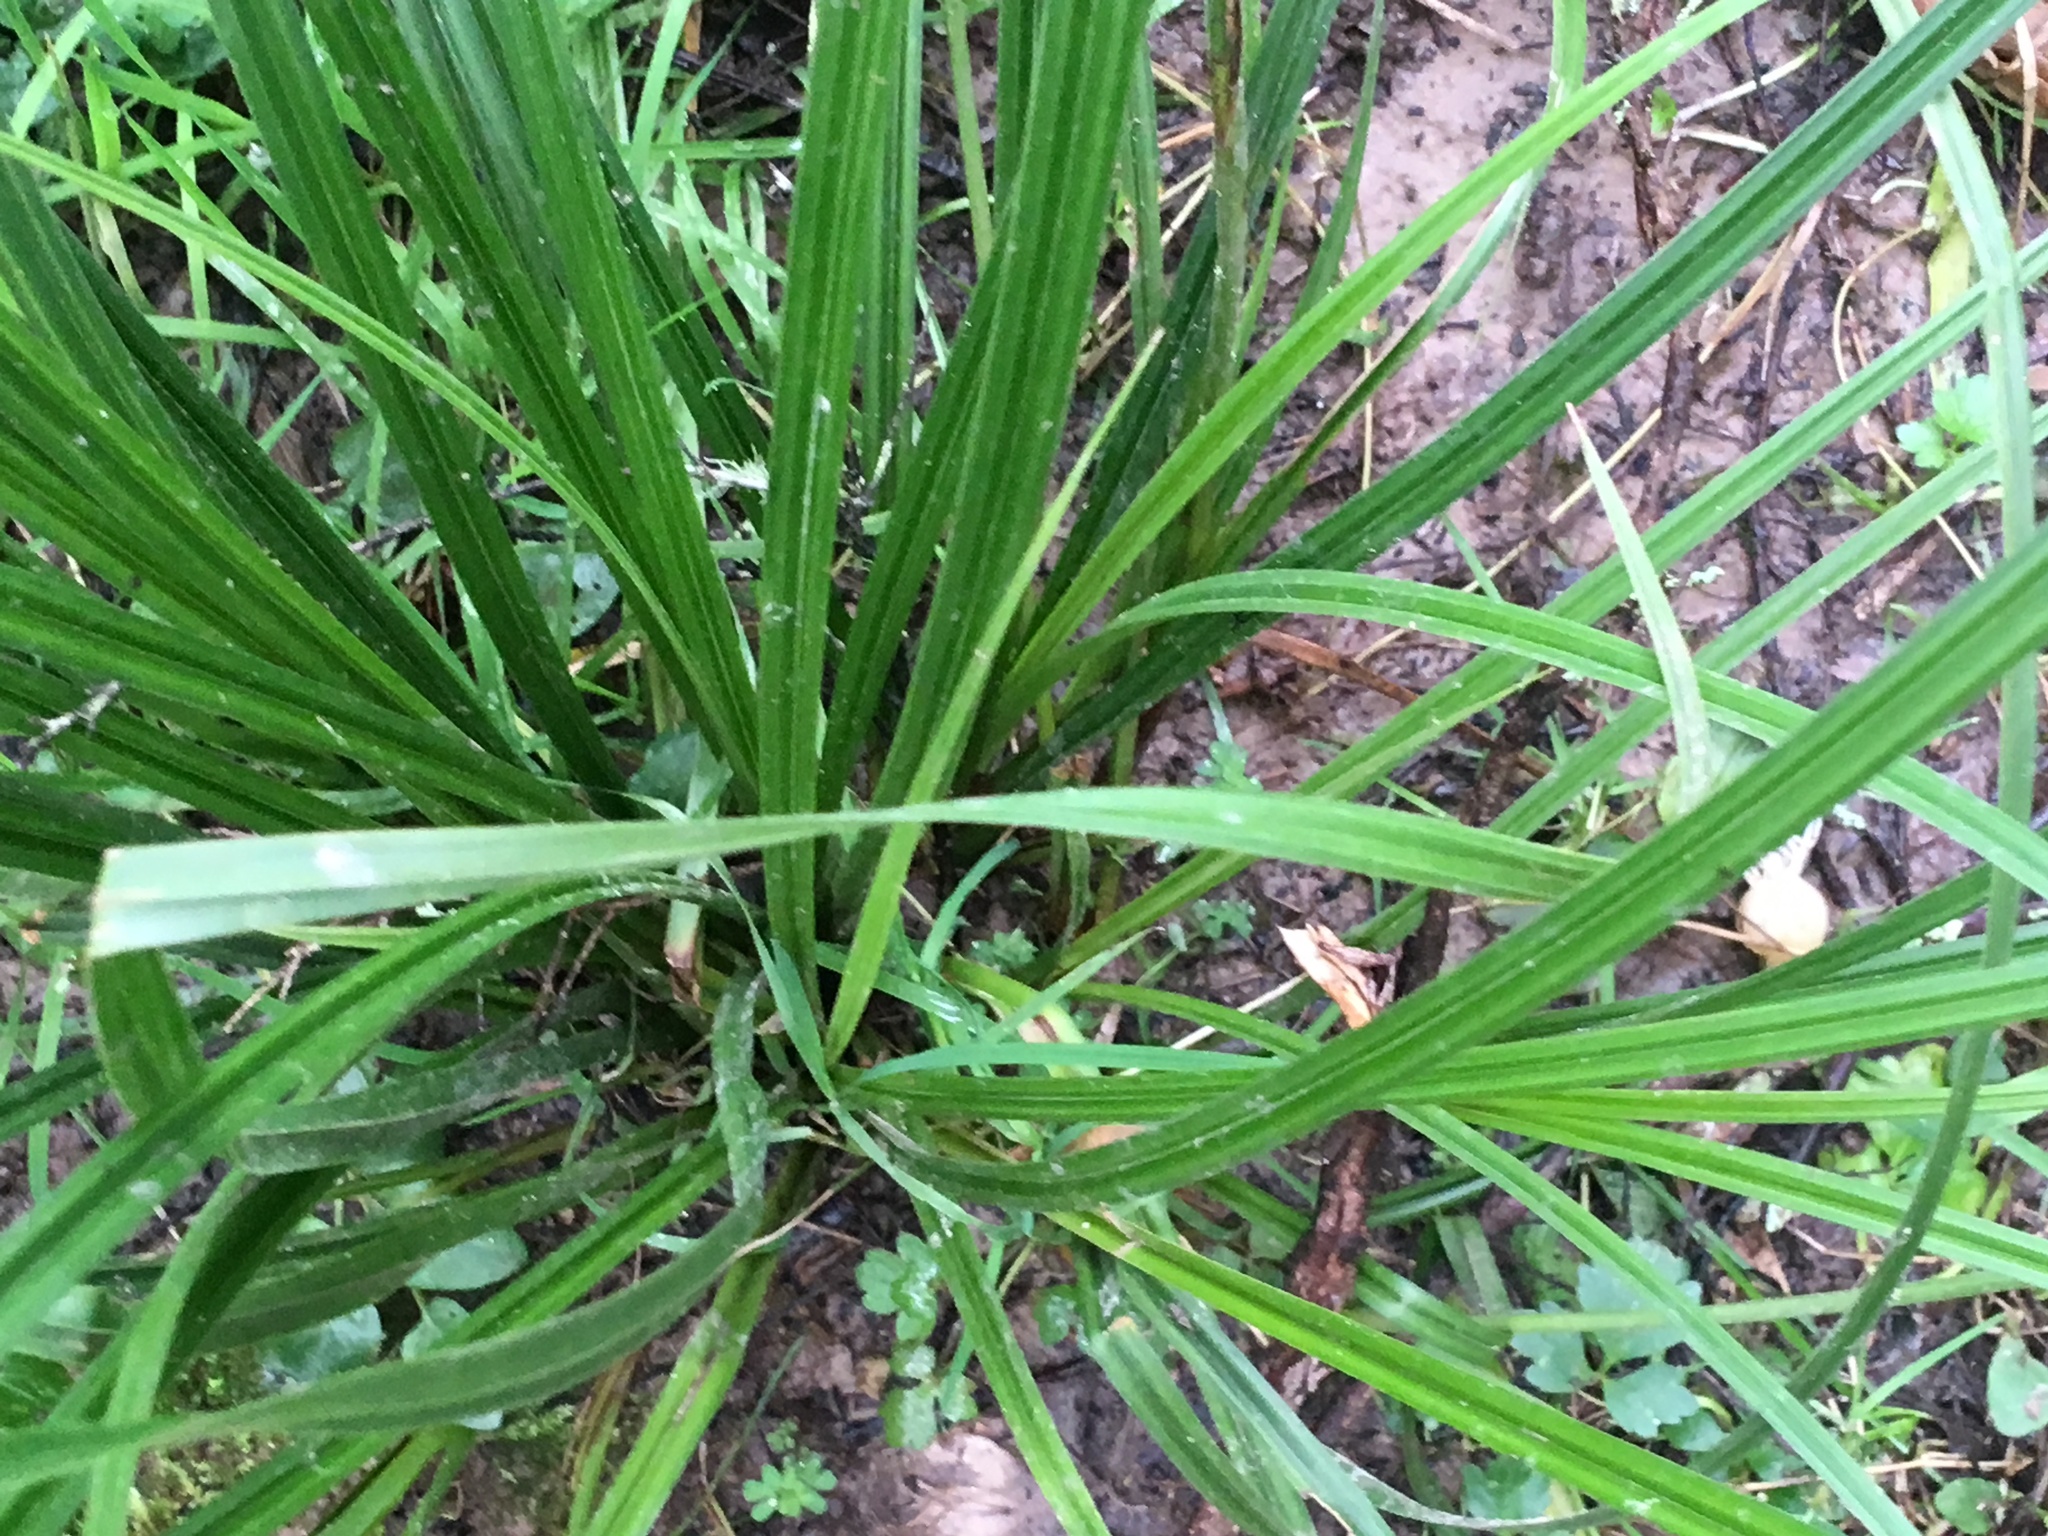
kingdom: Plantae
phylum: Tracheophyta
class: Liliopsida
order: Poales
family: Cyperaceae
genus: Carex
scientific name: Carex dissita
